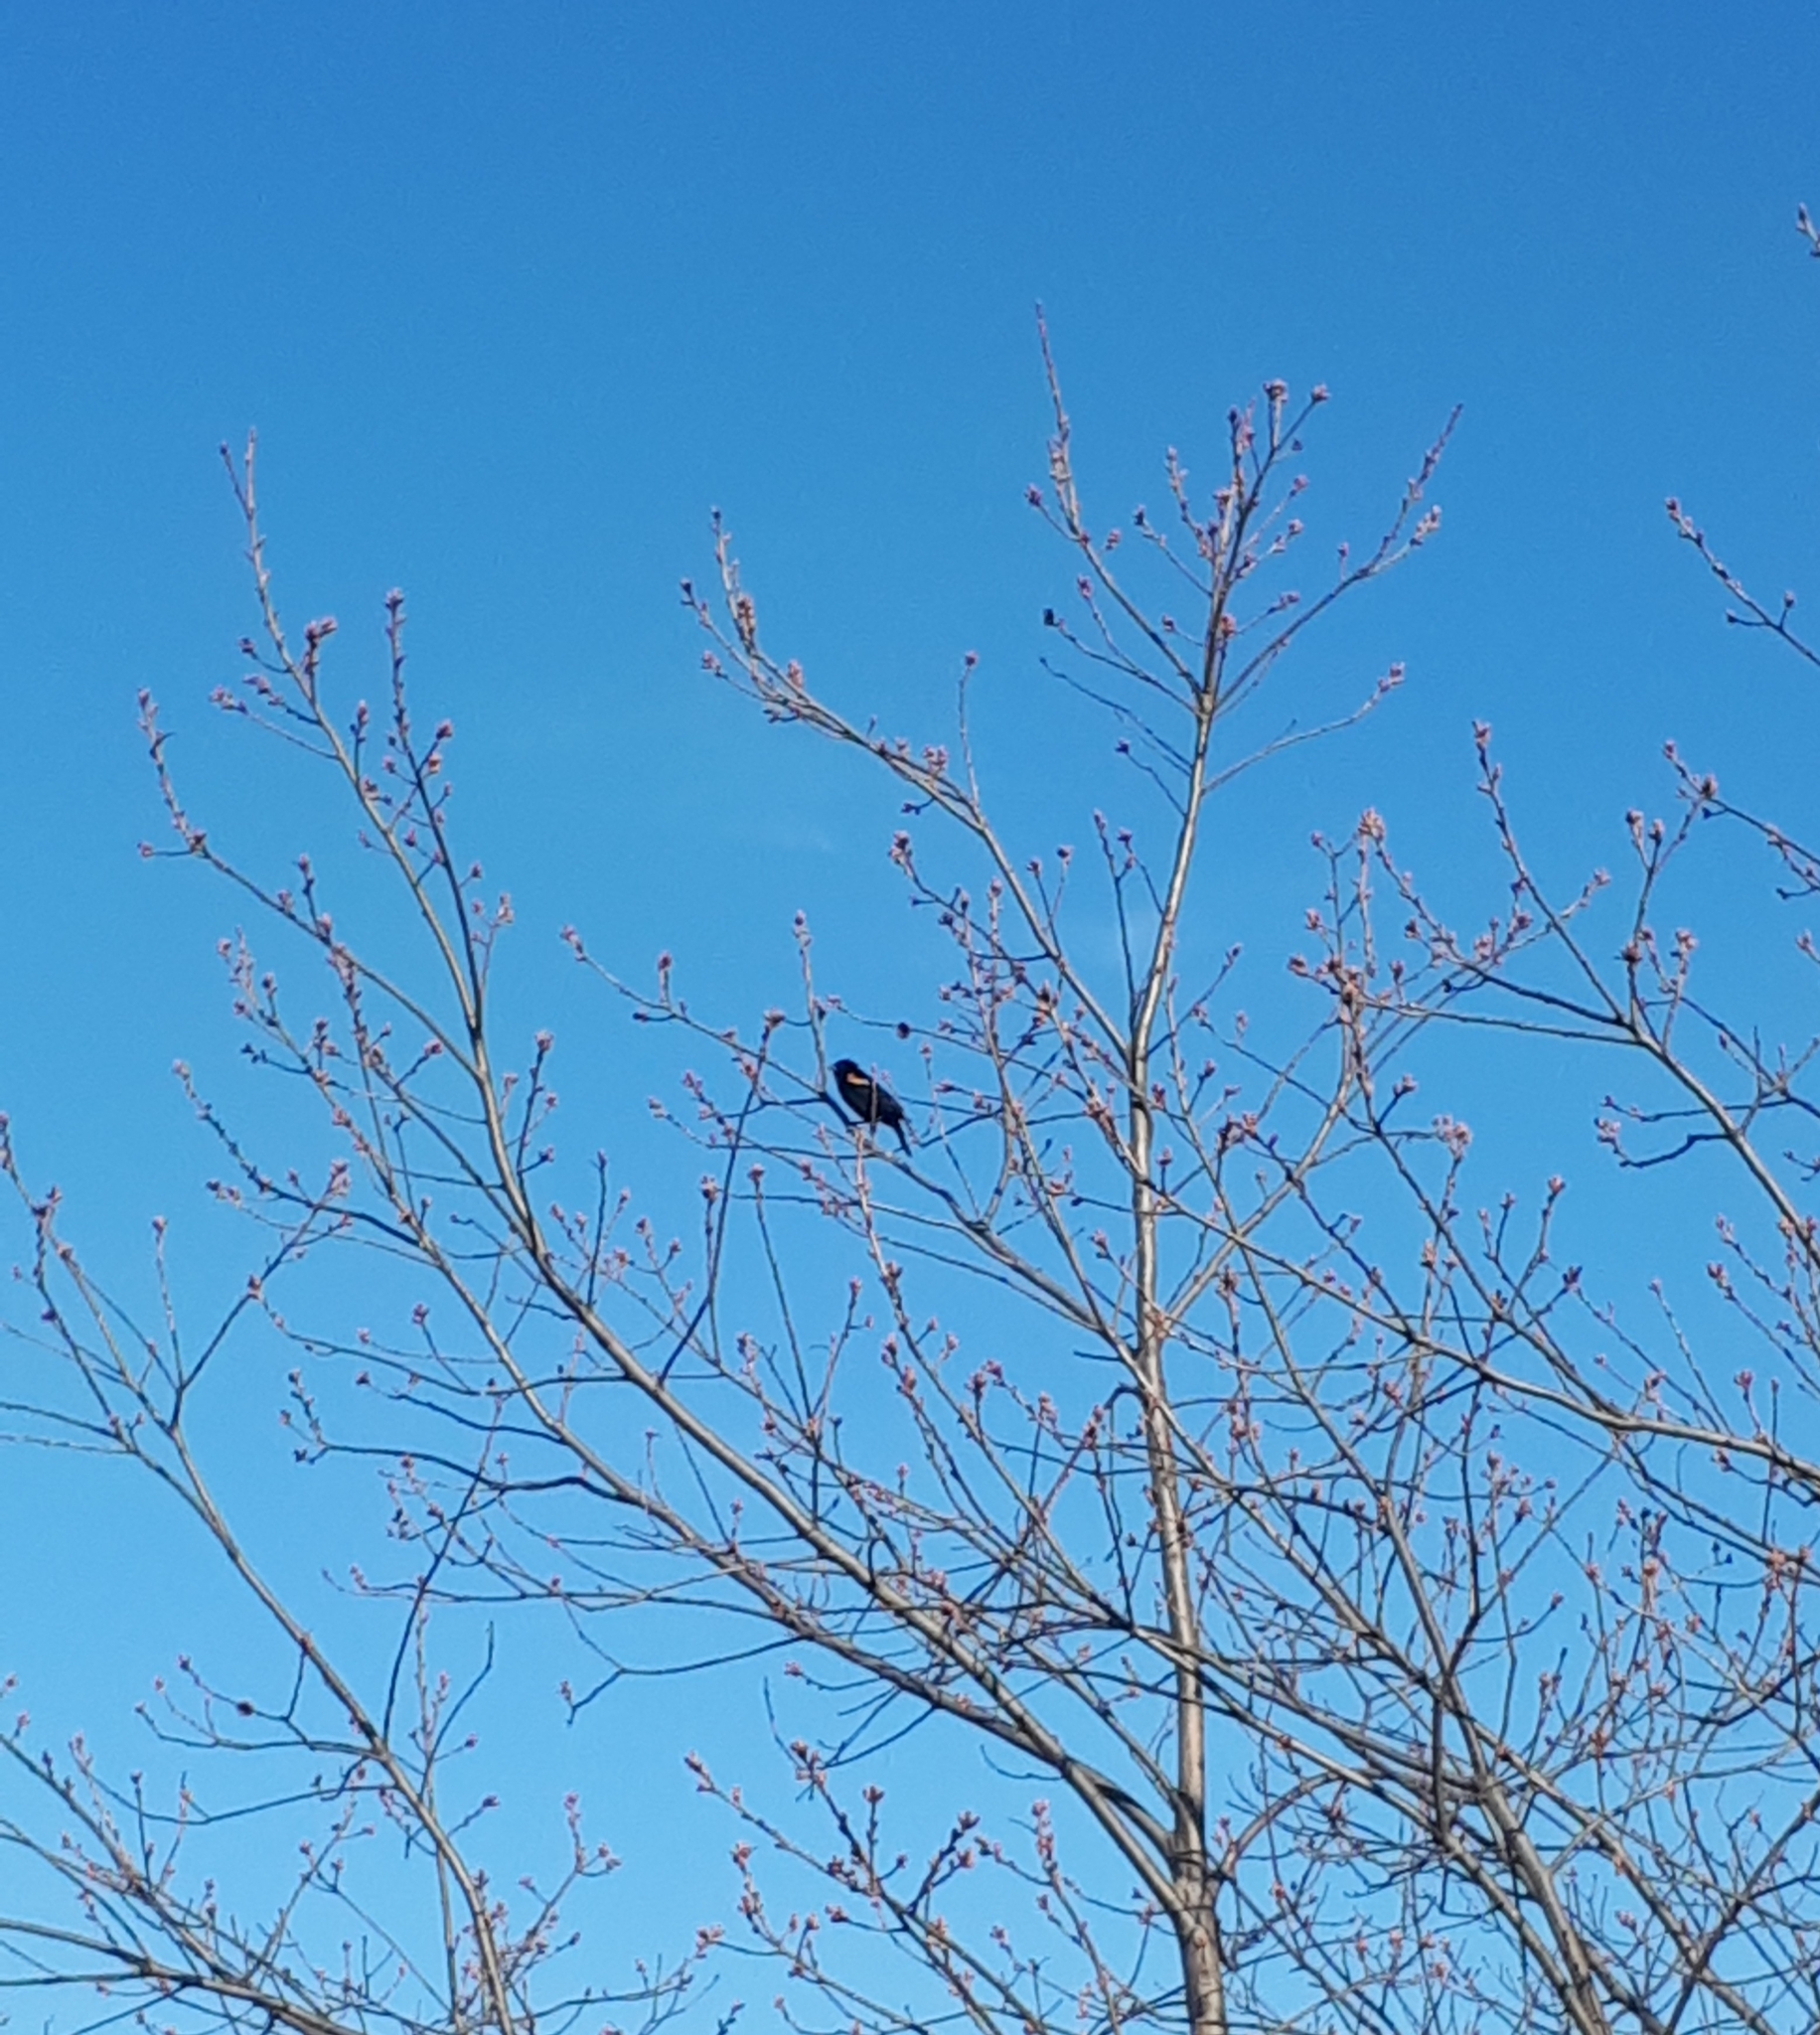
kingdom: Animalia
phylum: Chordata
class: Aves
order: Passeriformes
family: Icteridae
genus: Agelaius
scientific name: Agelaius phoeniceus
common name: Red-winged blackbird
